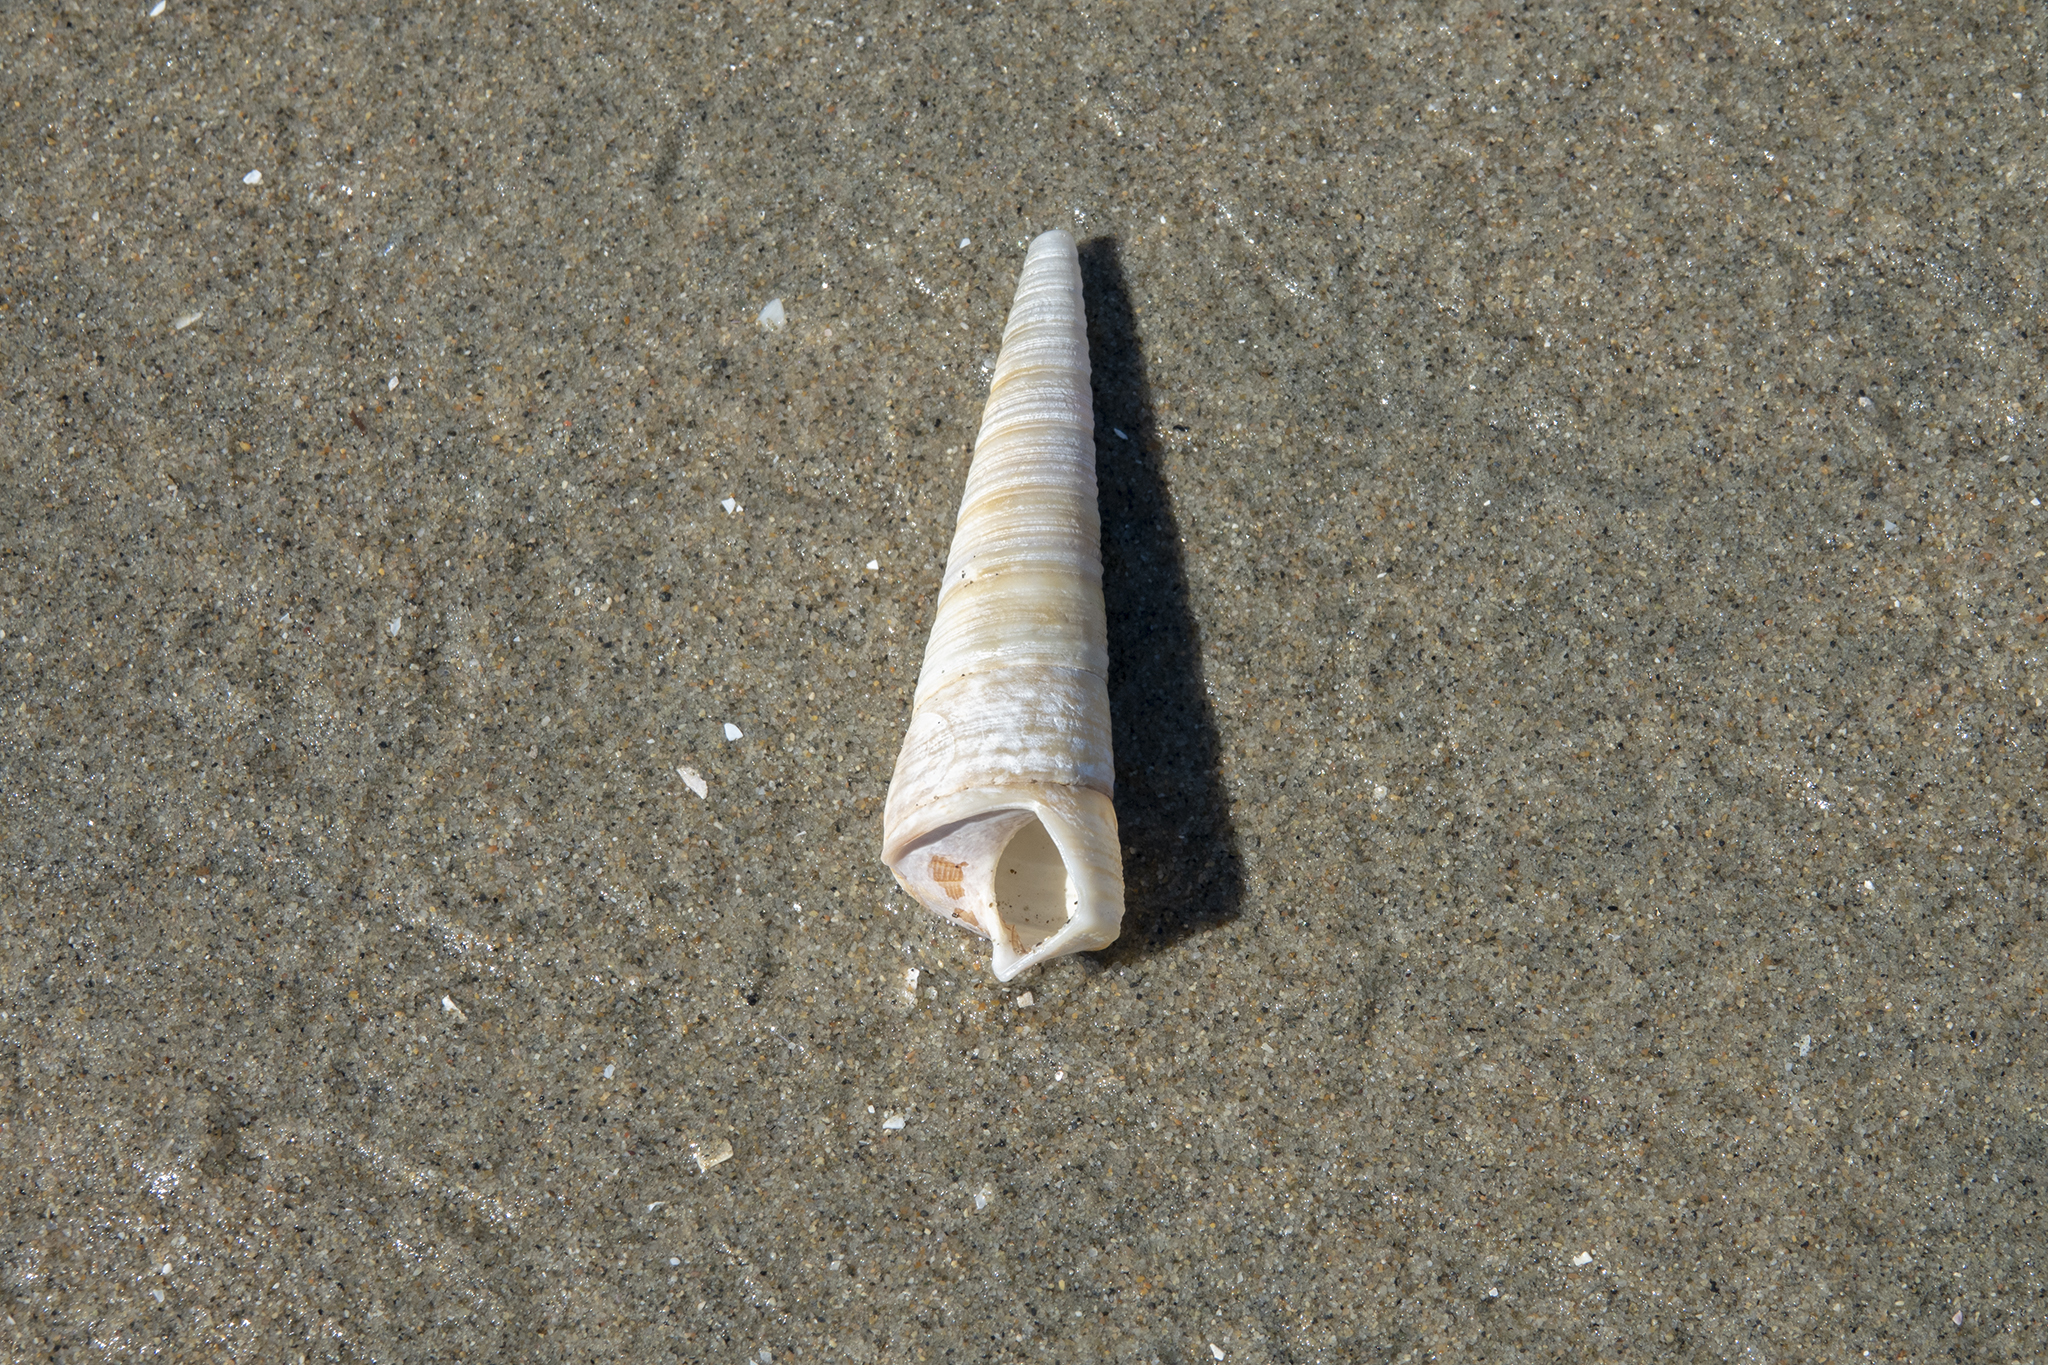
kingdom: Animalia
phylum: Mollusca
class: Gastropoda
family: Turritellidae
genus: Maoricolpus
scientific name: Maoricolpus roseus
